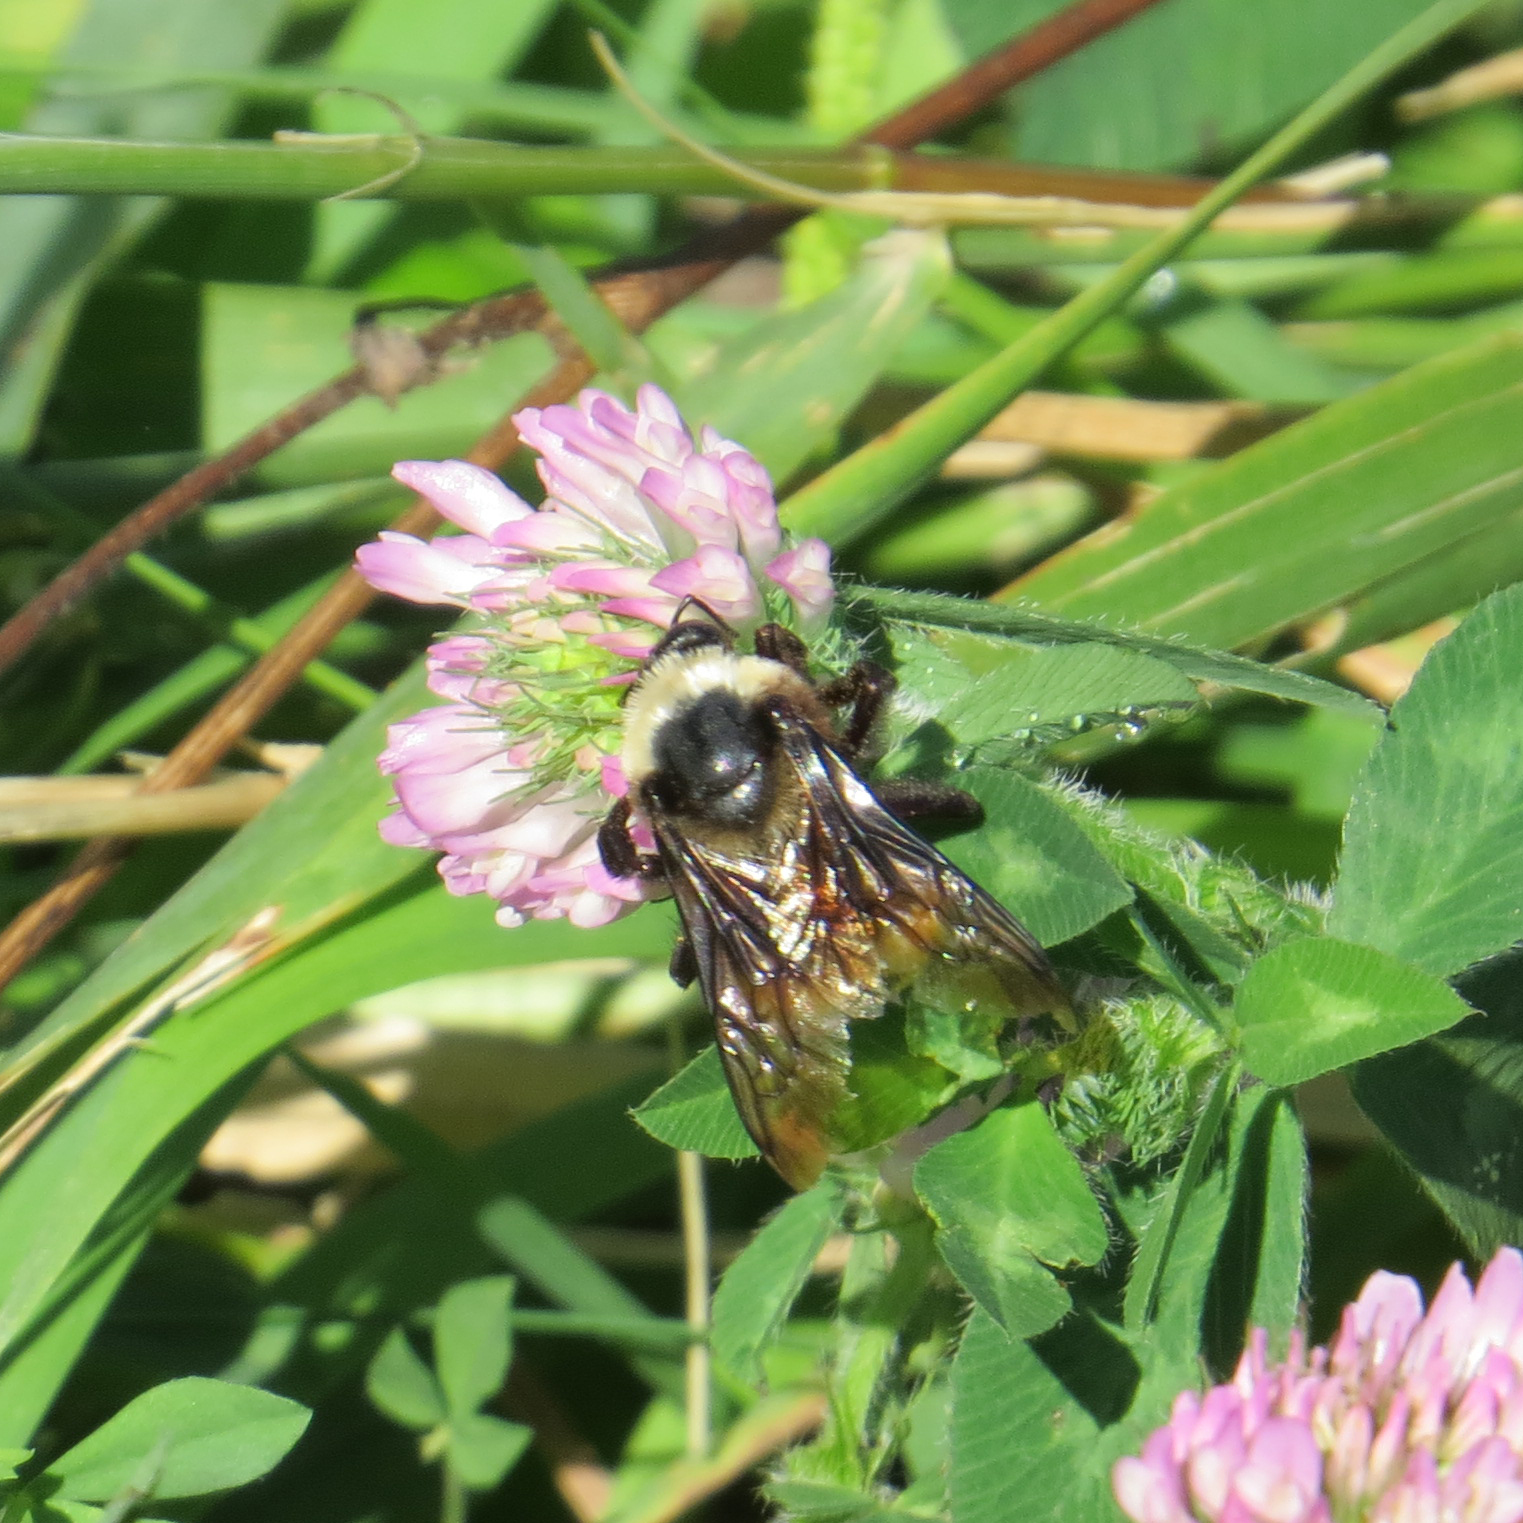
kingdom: Animalia
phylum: Arthropoda
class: Insecta
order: Hymenoptera
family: Apidae
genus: Bombus
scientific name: Bombus auricomus
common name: Black and gold bumble bee
